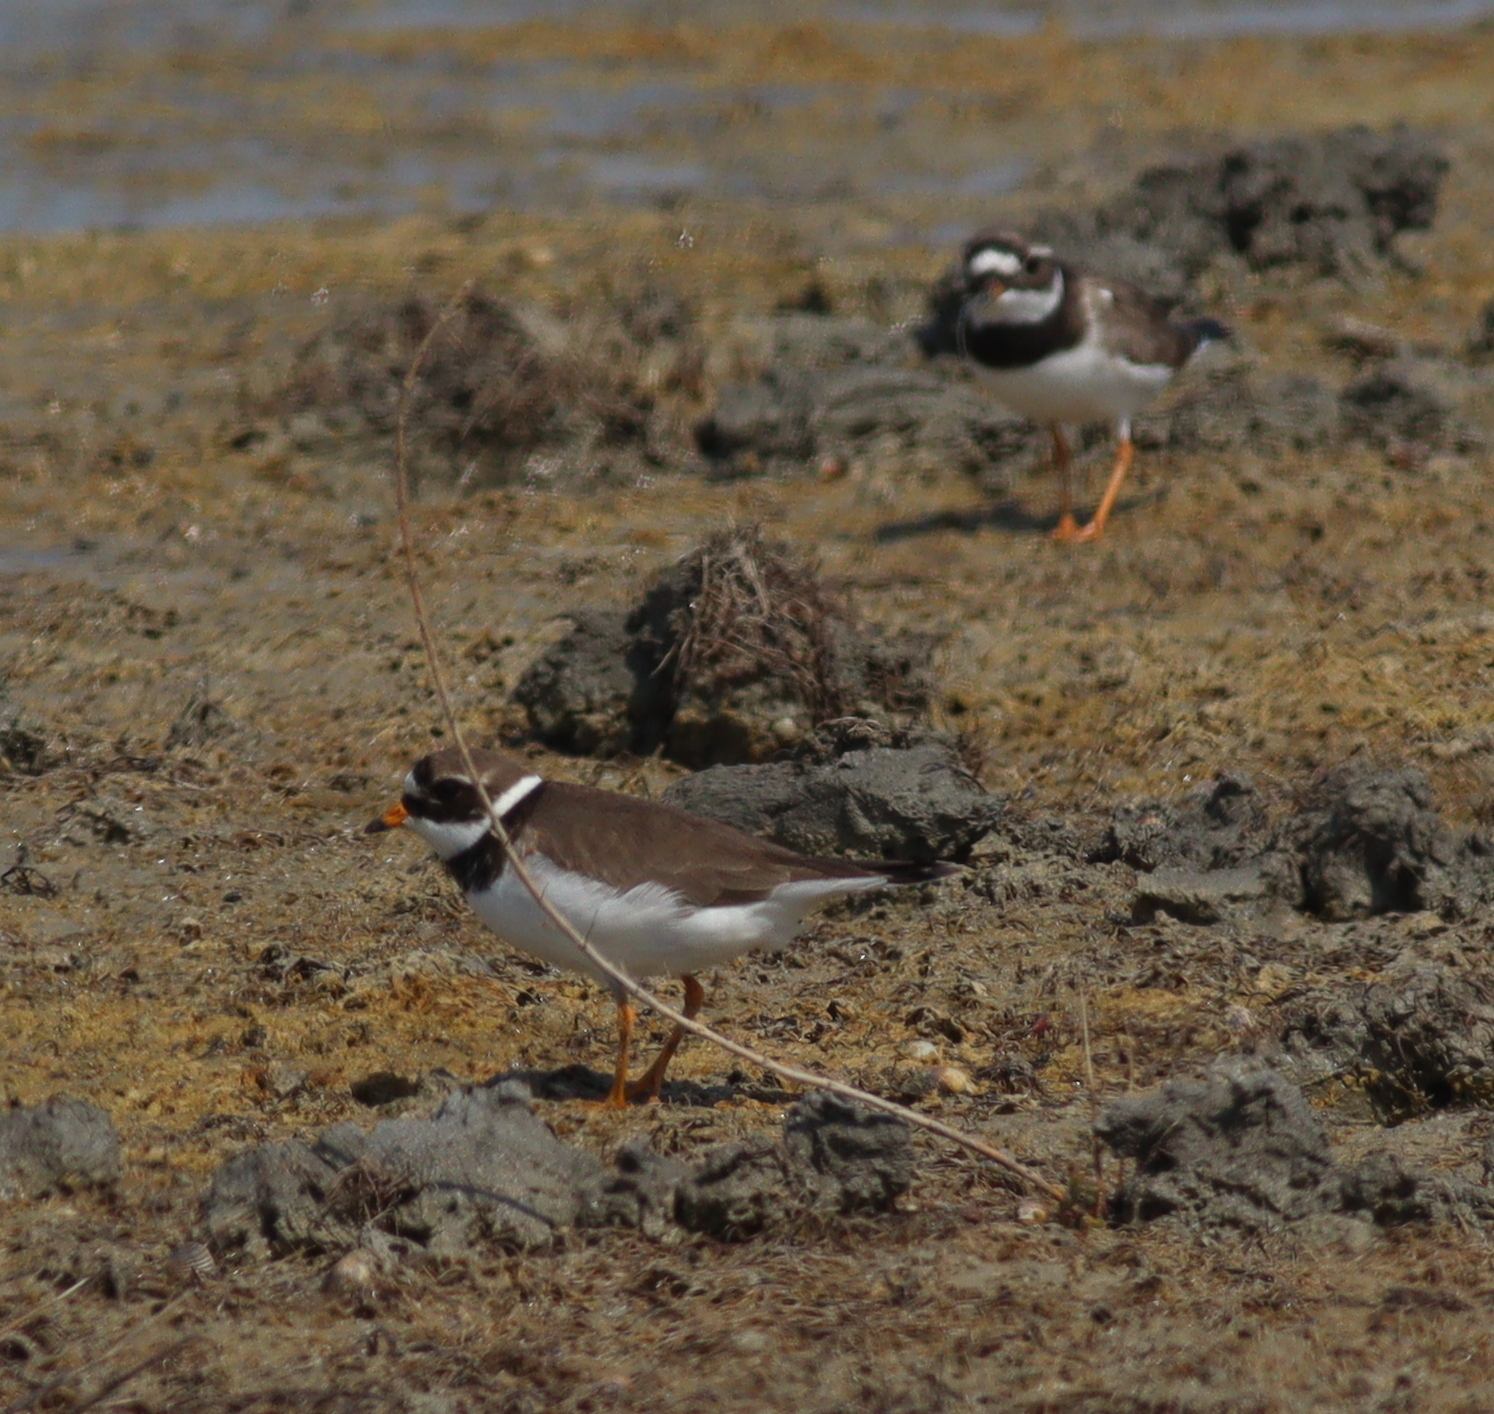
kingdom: Animalia
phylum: Chordata
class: Aves
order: Charadriiformes
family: Charadriidae
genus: Charadrius
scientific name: Charadrius hiaticula
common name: Common ringed plover
